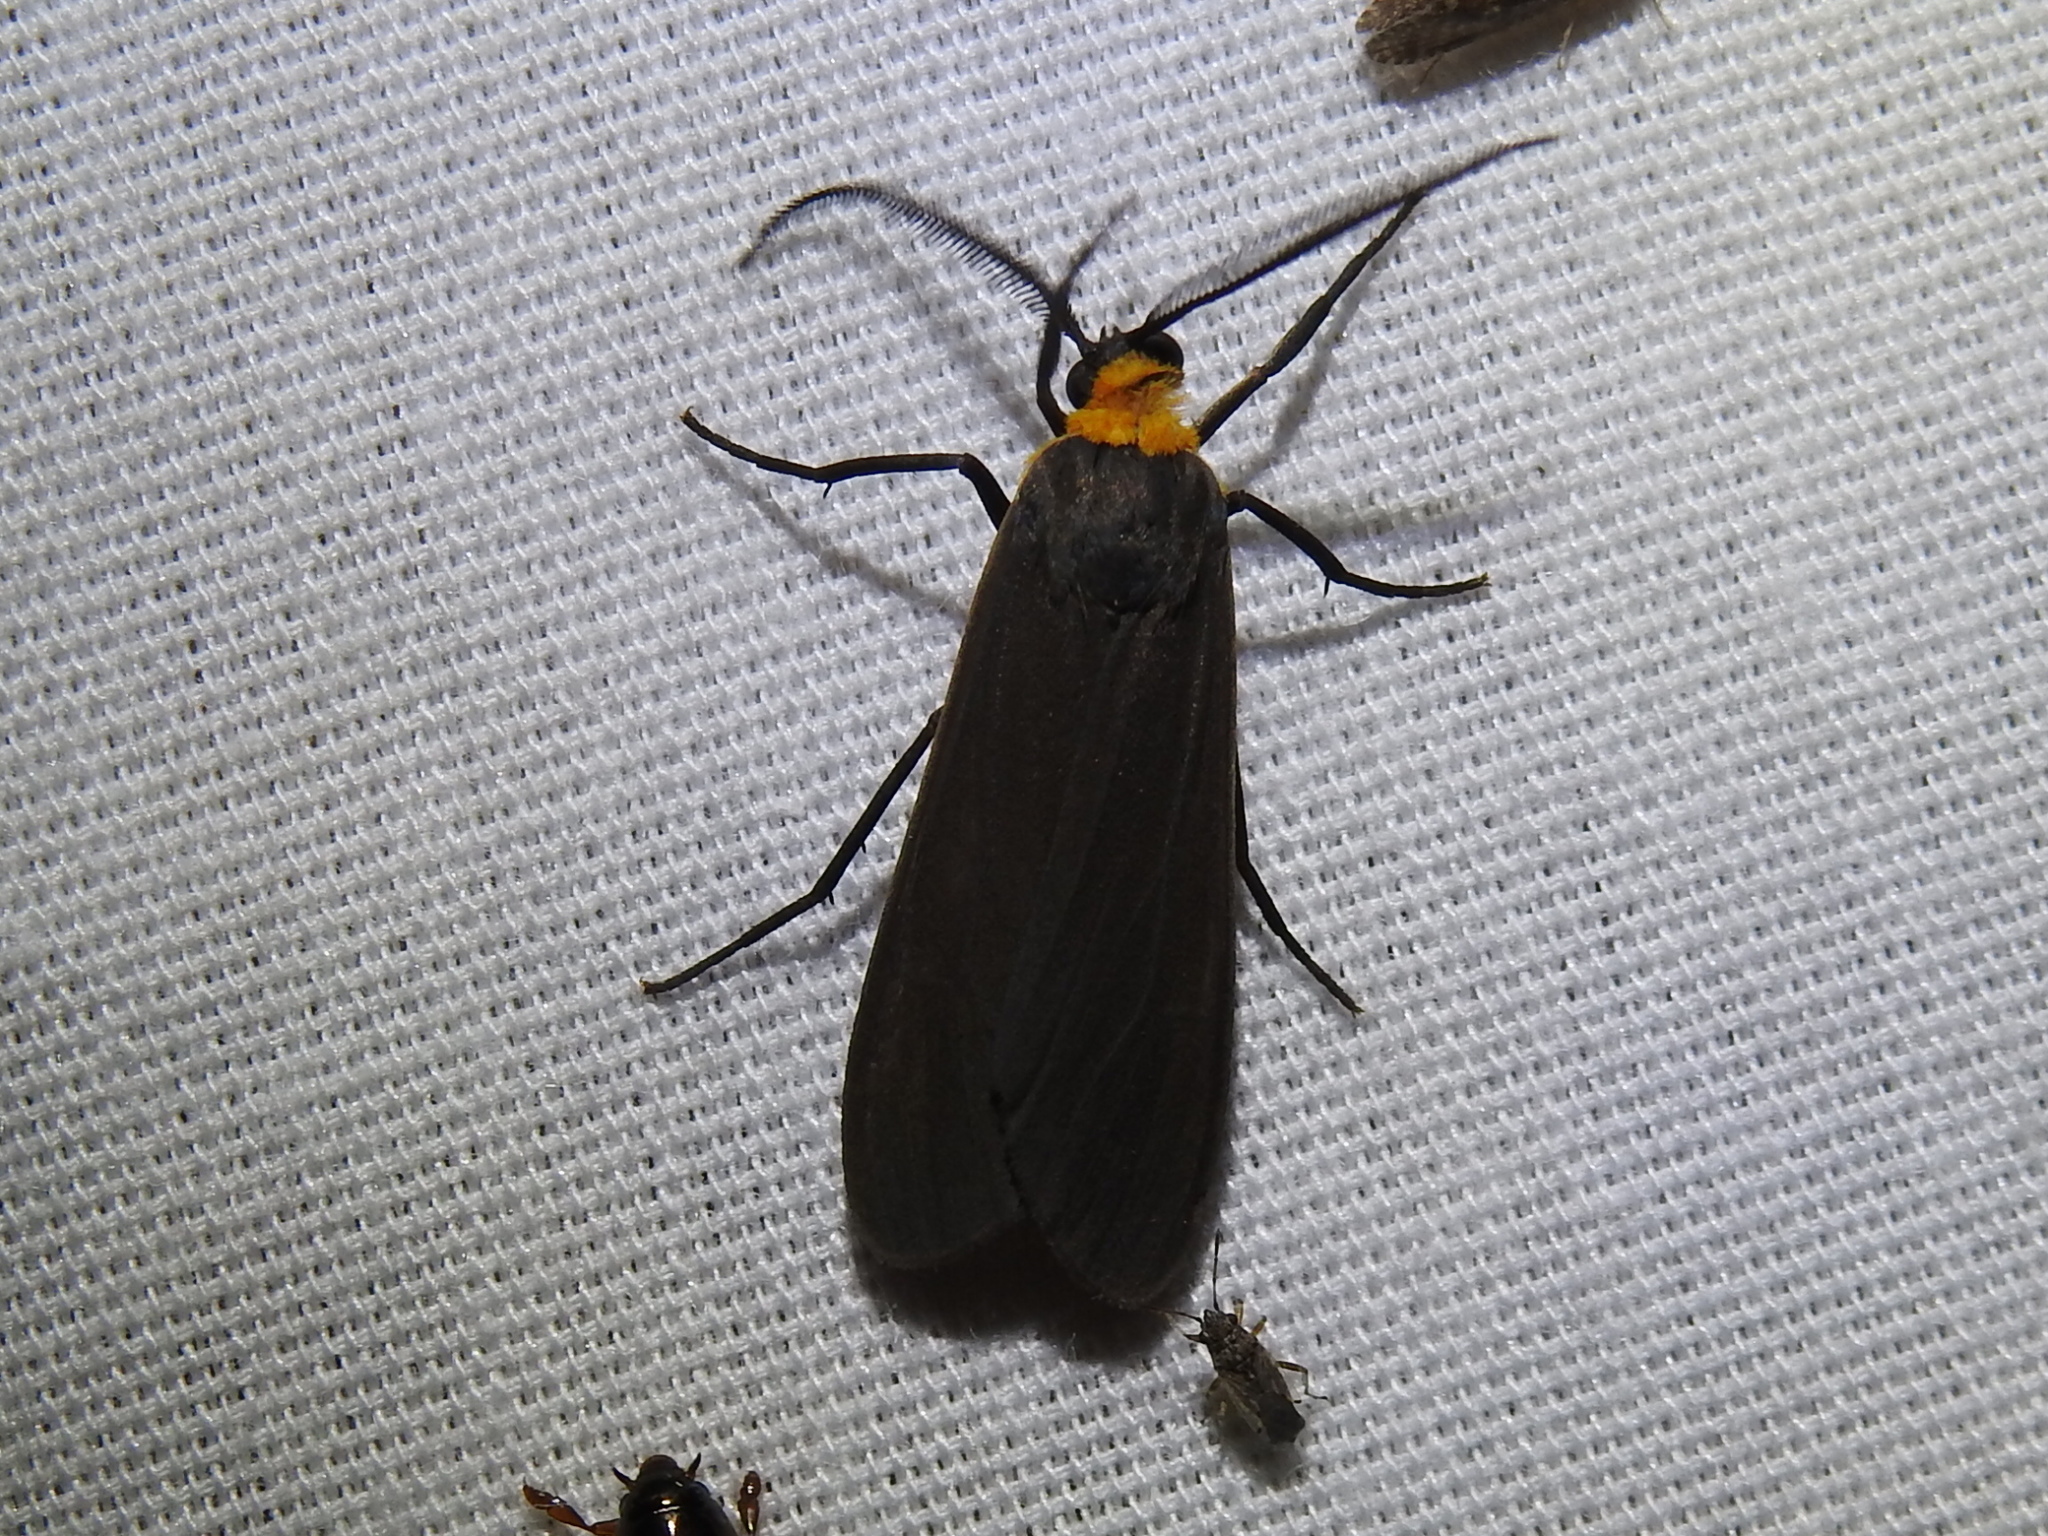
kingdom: Animalia
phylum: Arthropoda
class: Insecta
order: Lepidoptera
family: Erebidae
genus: Cisseps
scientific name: Cisseps fulvicollis
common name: Yellow-collared scape moth
